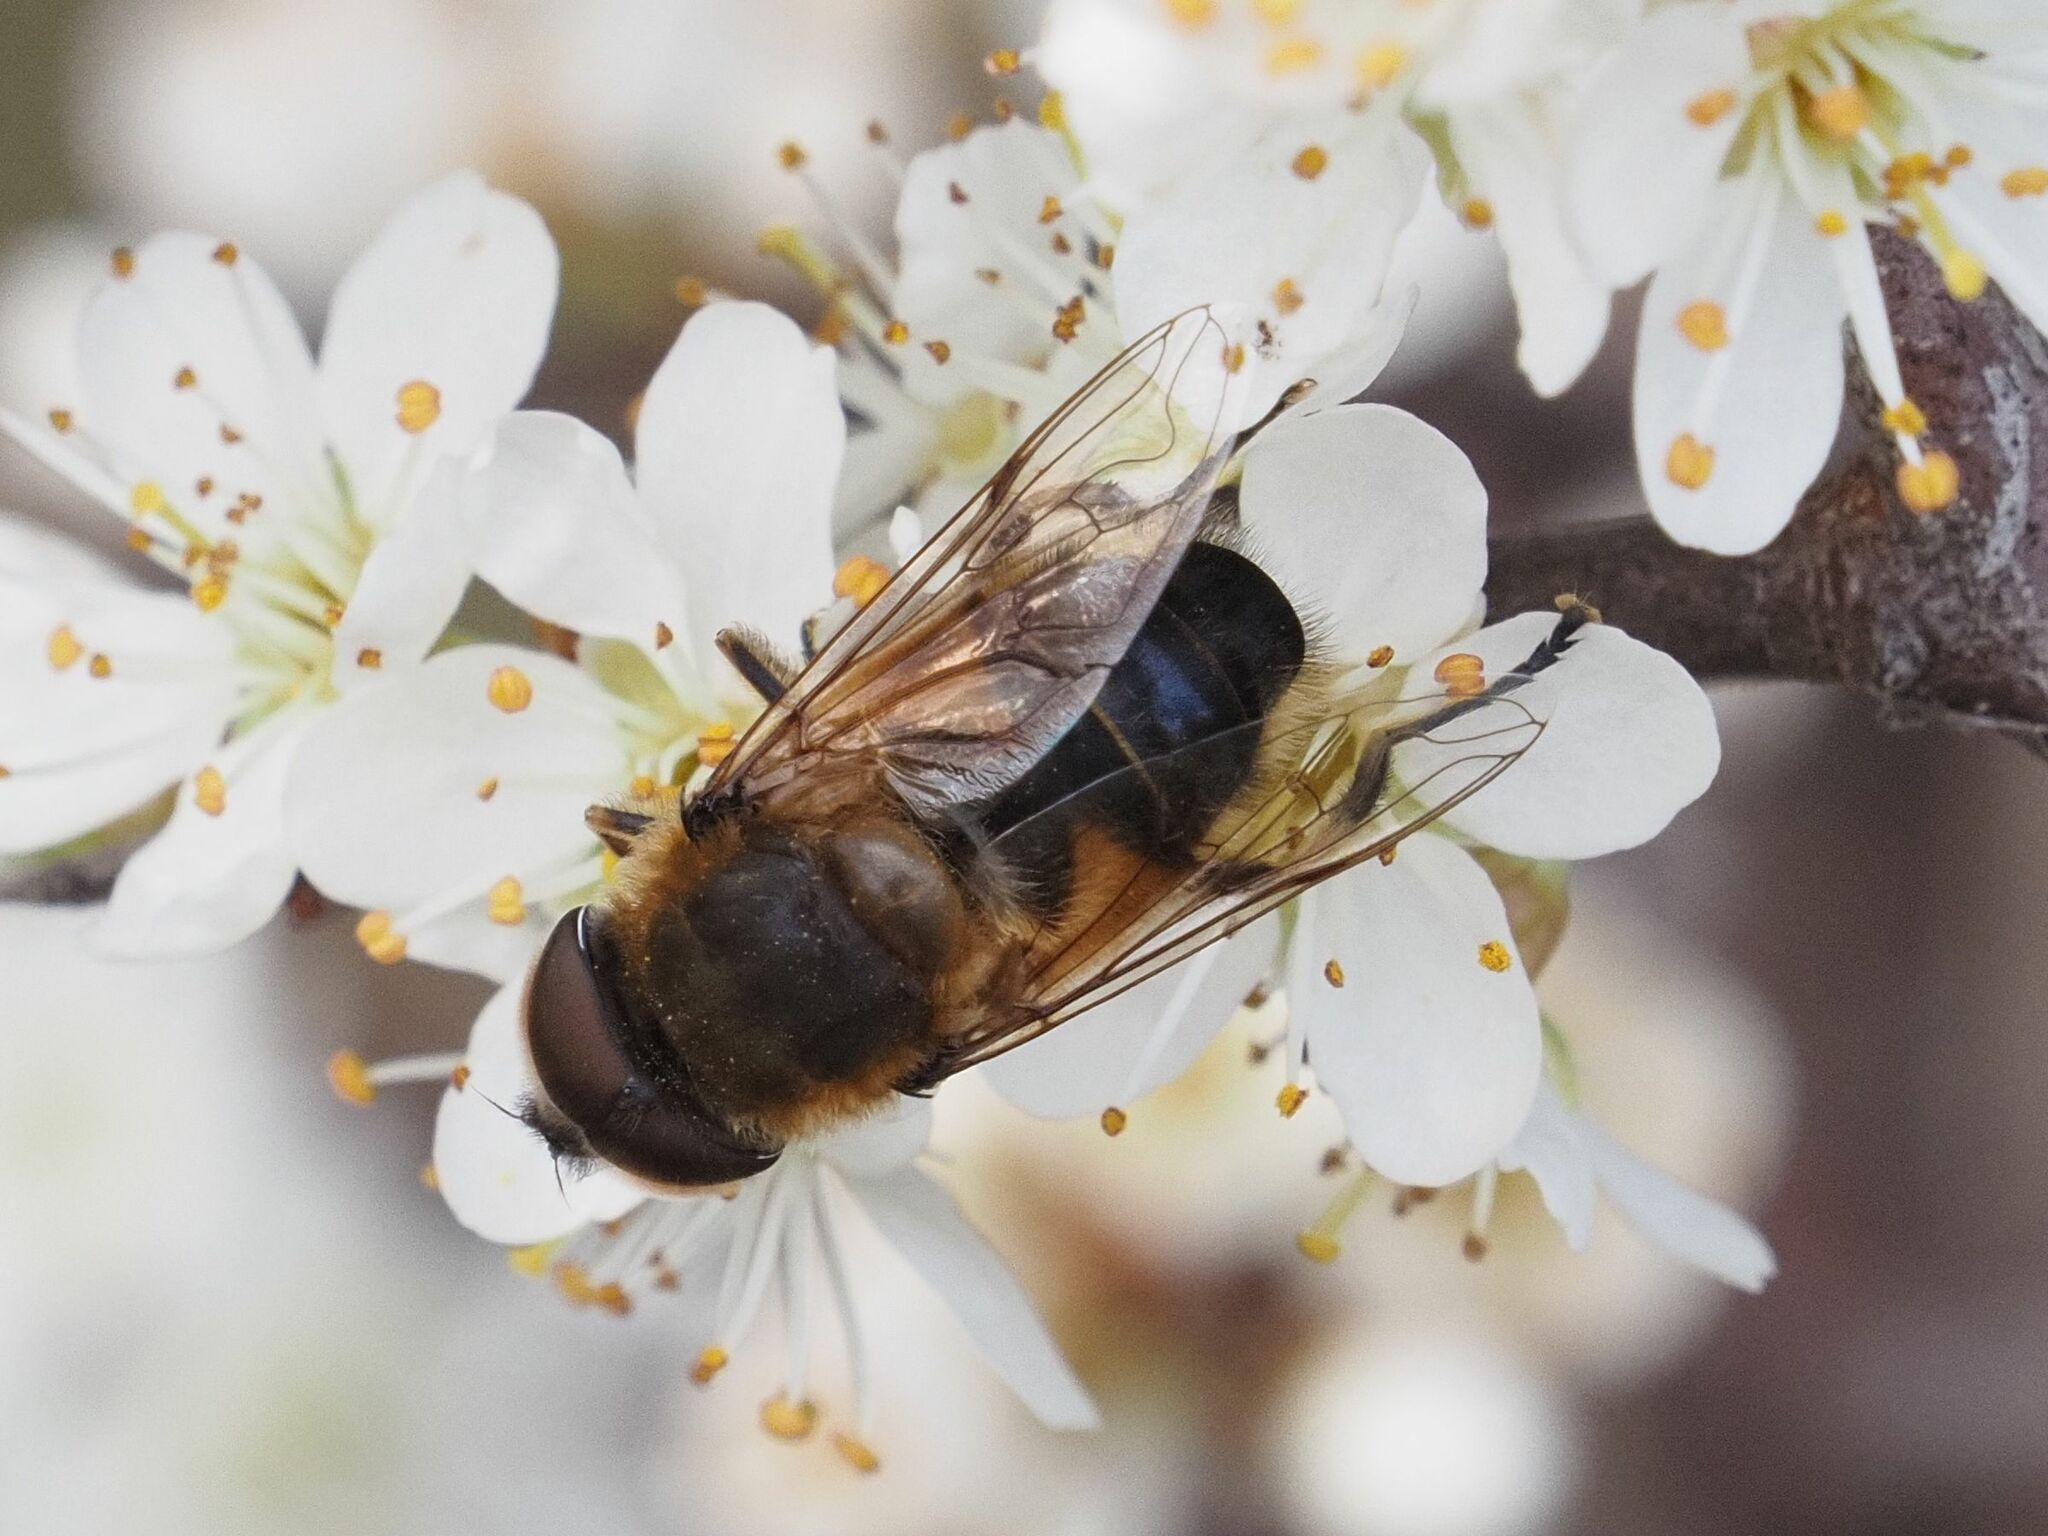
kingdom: Animalia
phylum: Arthropoda
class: Insecta
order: Diptera
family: Syrphidae
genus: Eristalis
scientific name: Eristalis pertinax
